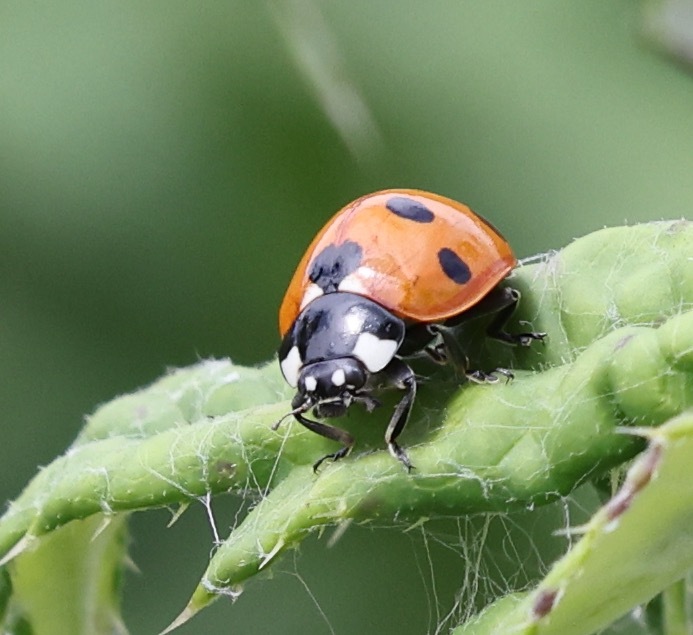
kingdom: Animalia
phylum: Arthropoda
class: Insecta
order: Coleoptera
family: Coccinellidae
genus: Coccinella
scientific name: Coccinella septempunctata
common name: Sevenspotted lady beetle
